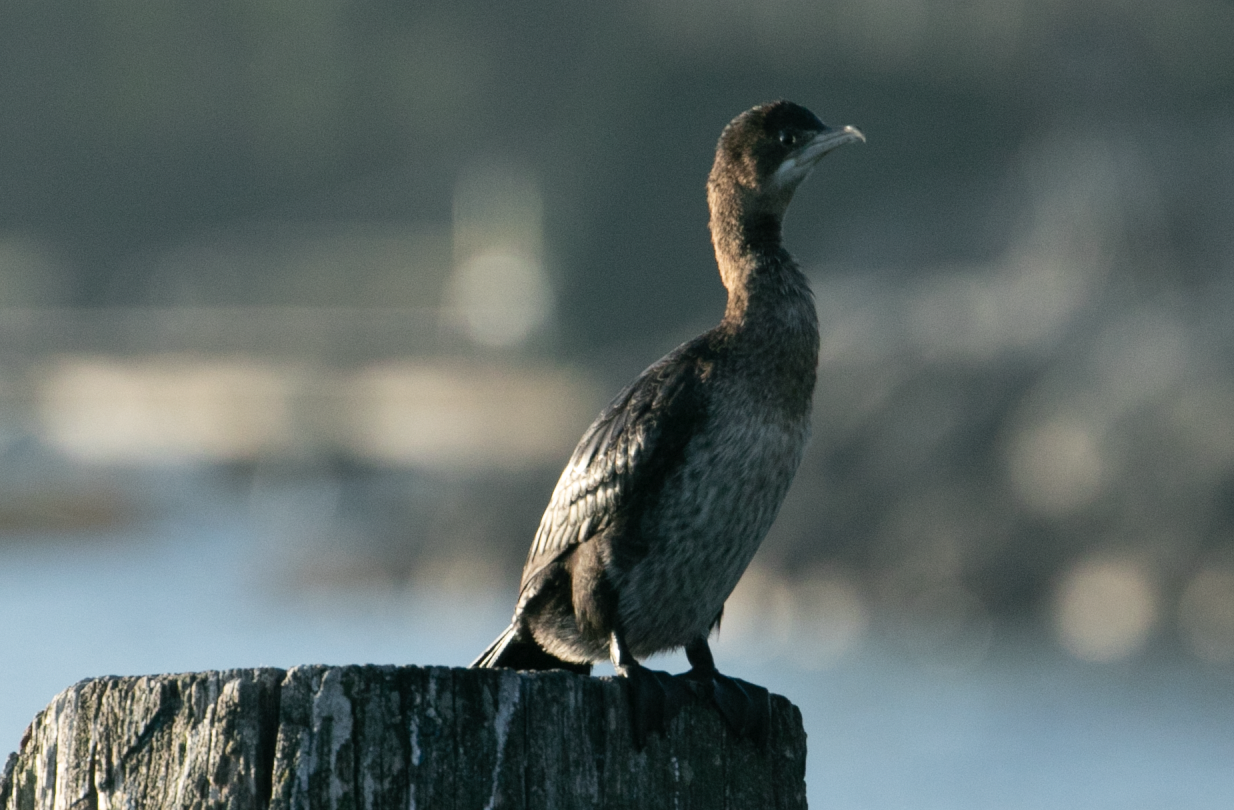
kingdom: Animalia
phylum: Chordata
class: Aves
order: Suliformes
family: Phalacrocoracidae
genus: Microcarbo
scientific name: Microcarbo pygmaeus
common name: Pygmy cormorant
